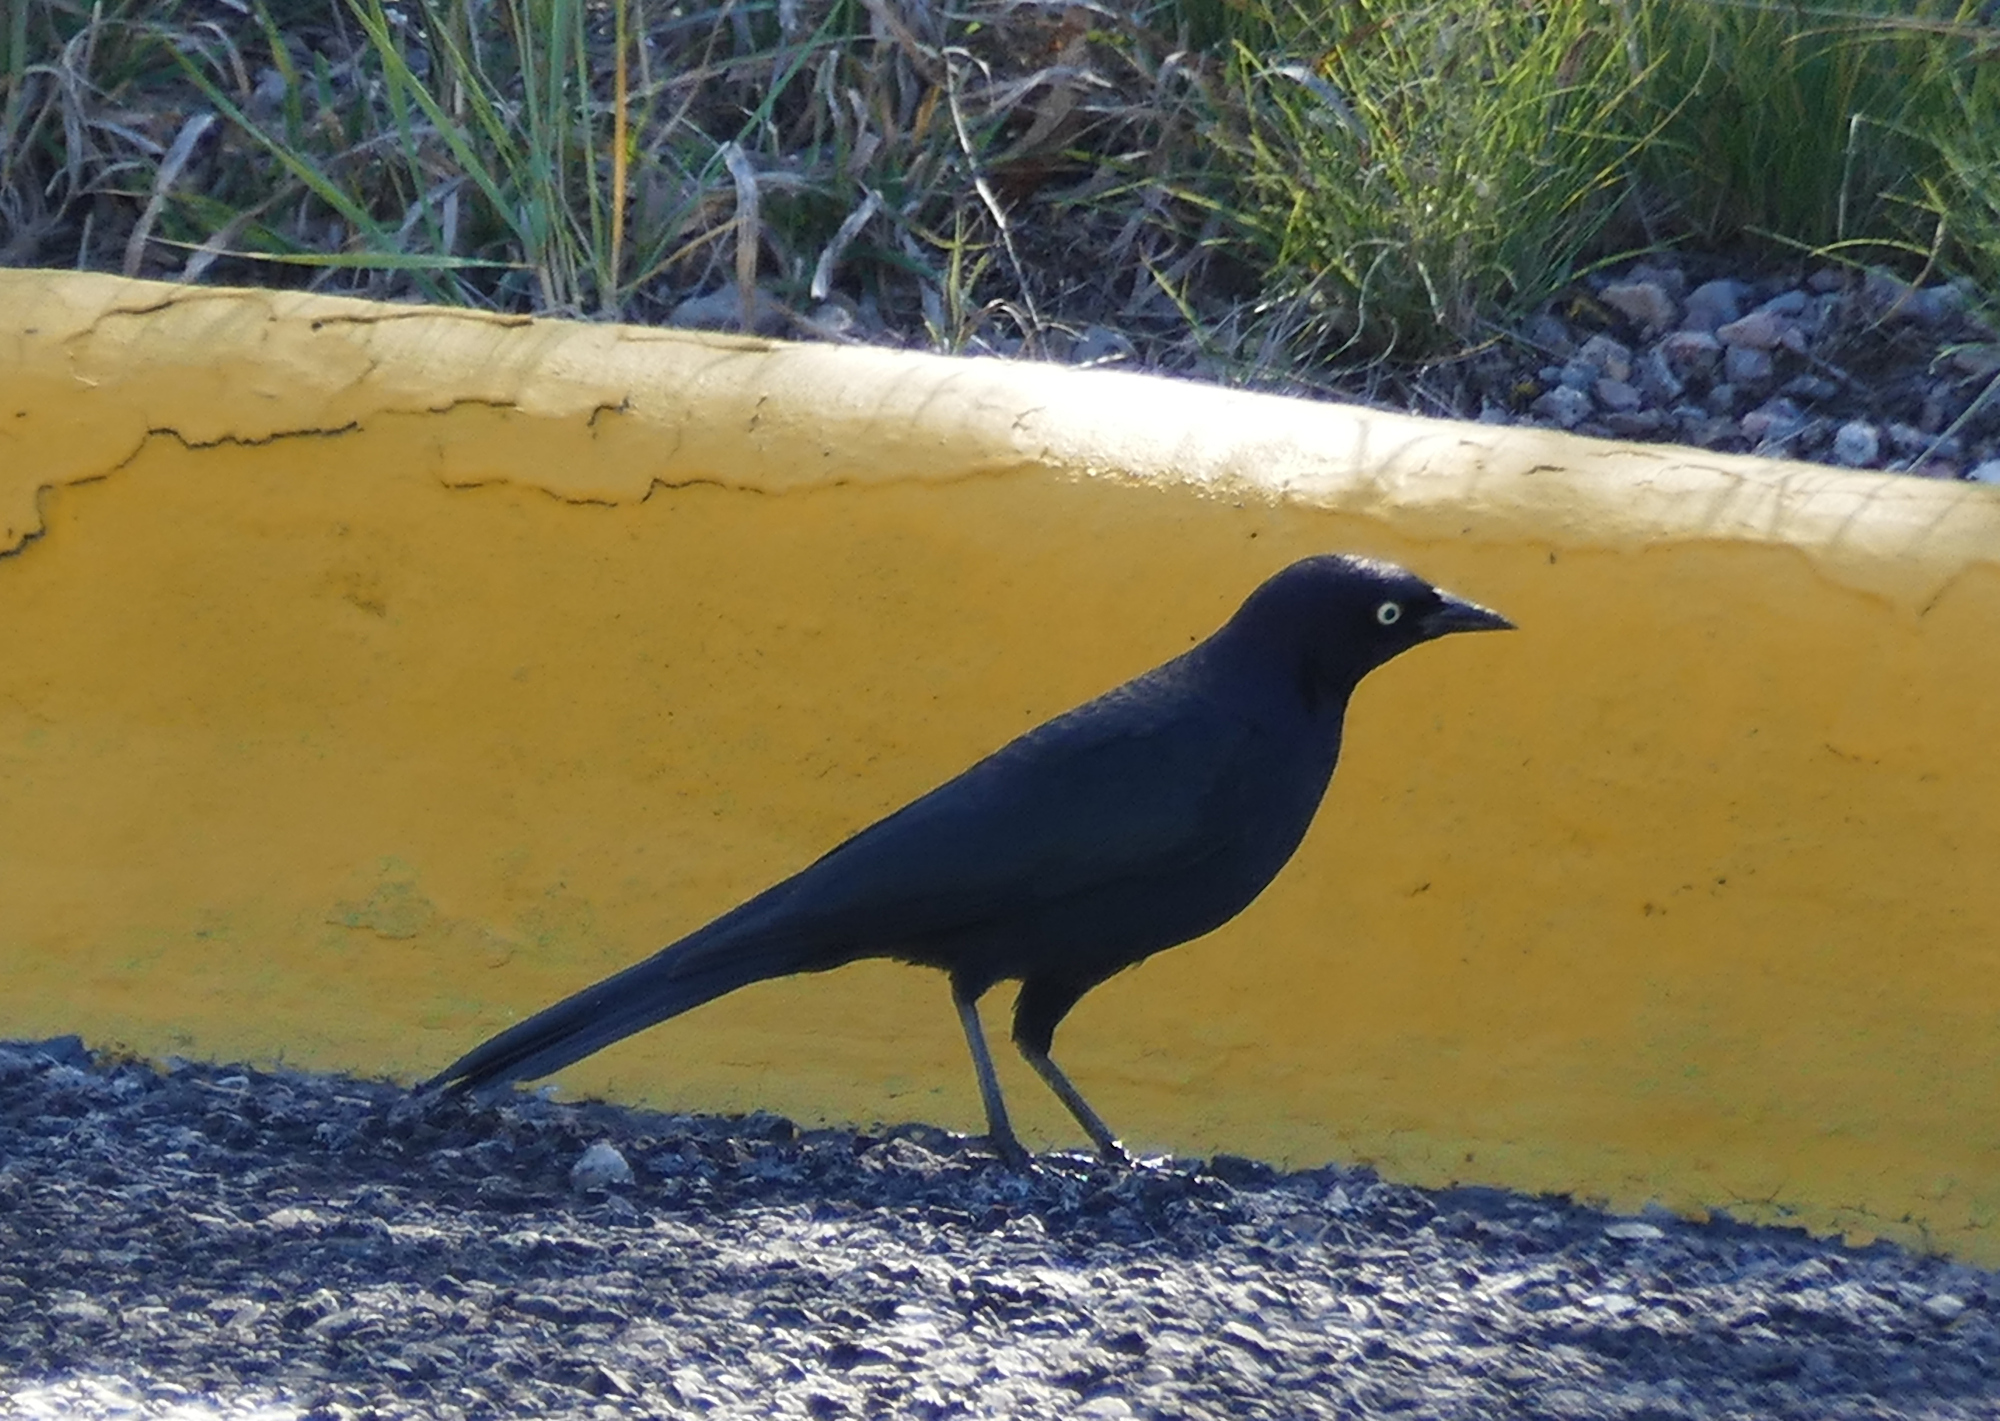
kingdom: Animalia
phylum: Chordata
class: Aves
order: Passeriformes
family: Icteridae
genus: Euphagus
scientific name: Euphagus cyanocephalus
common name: Brewer's blackbird
